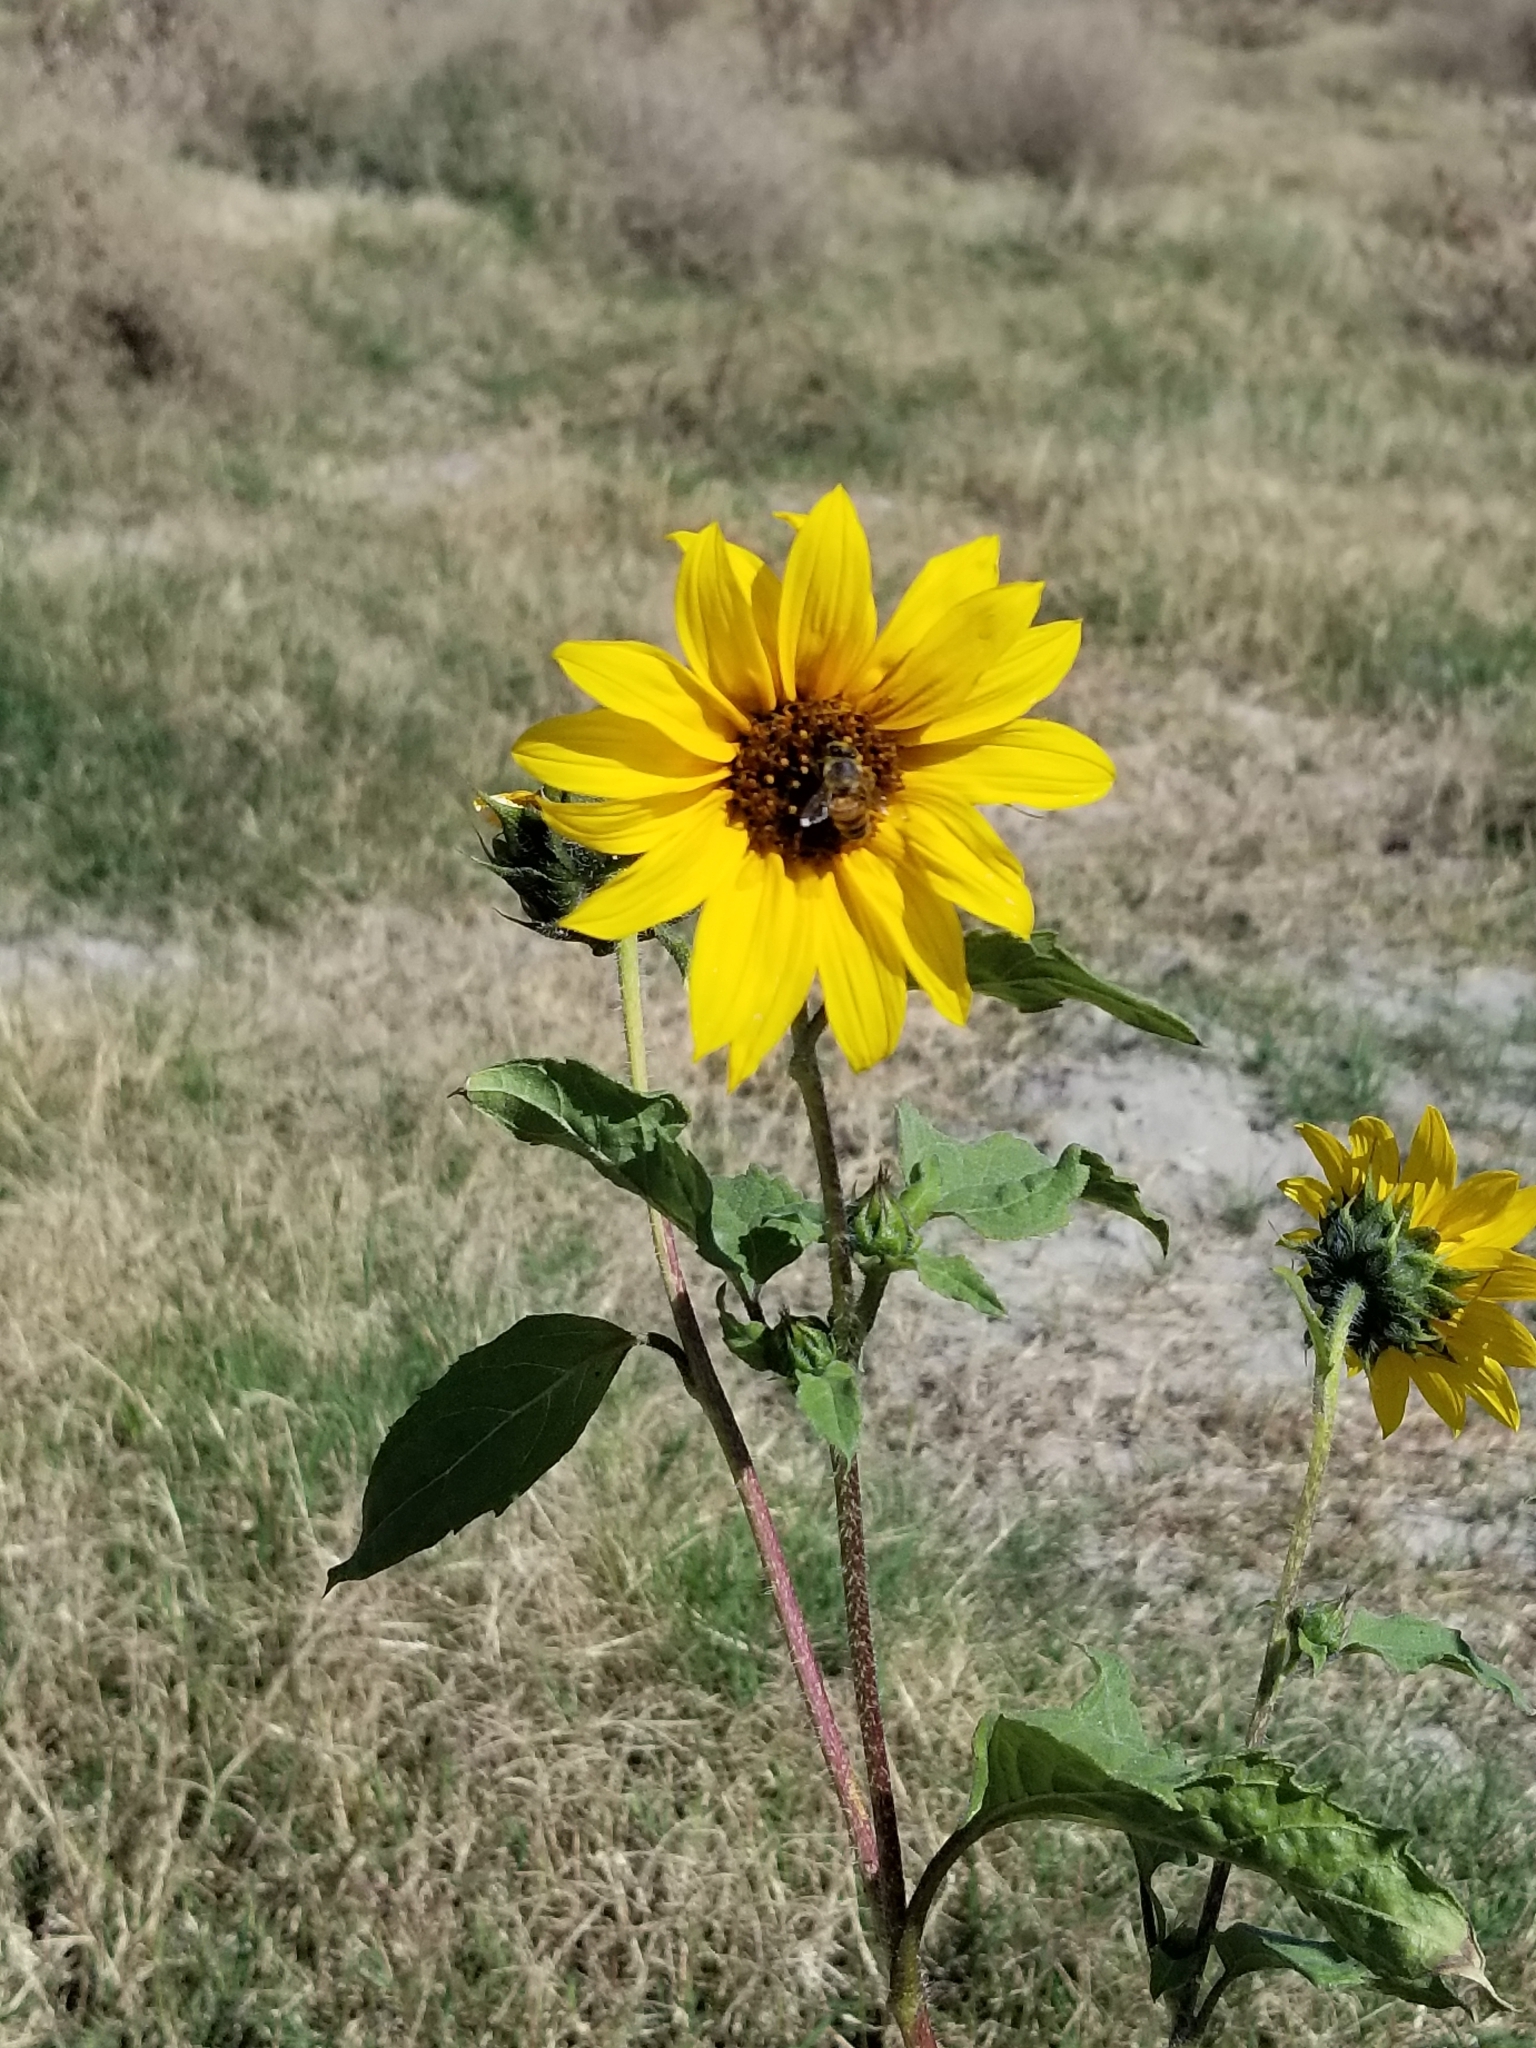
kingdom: Plantae
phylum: Tracheophyta
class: Magnoliopsida
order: Asterales
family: Asteraceae
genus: Helianthus
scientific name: Helianthus petiolaris
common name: Lesser sunflower
